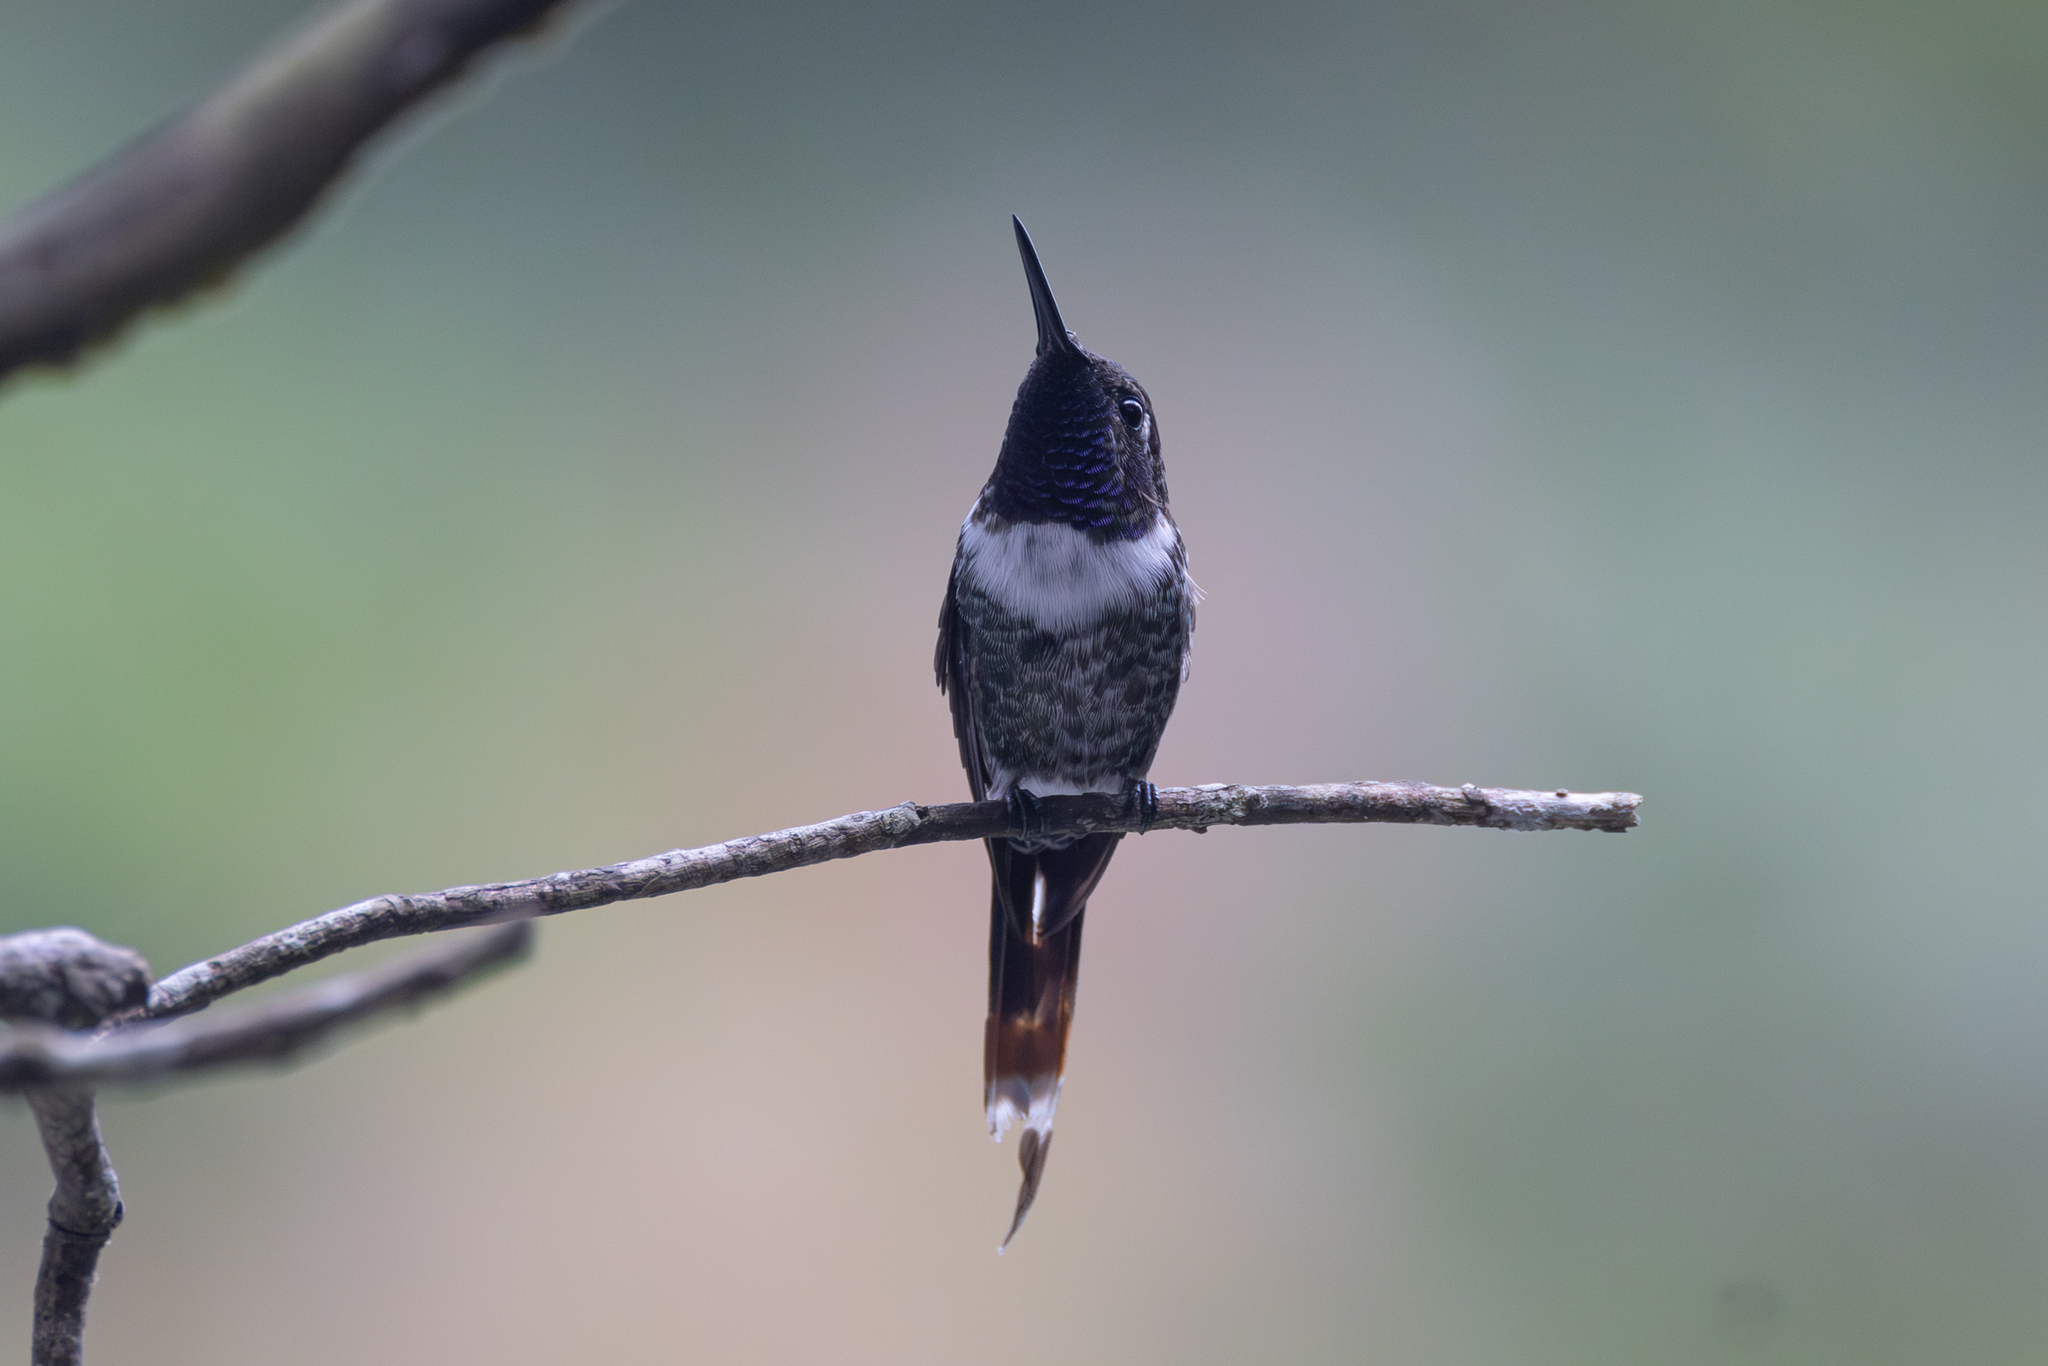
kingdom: Animalia
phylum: Chordata
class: Aves
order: Apodiformes
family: Trochilidae
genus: Tilmatura
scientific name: Tilmatura dupontii
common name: Sparkling-tailed woodstar
